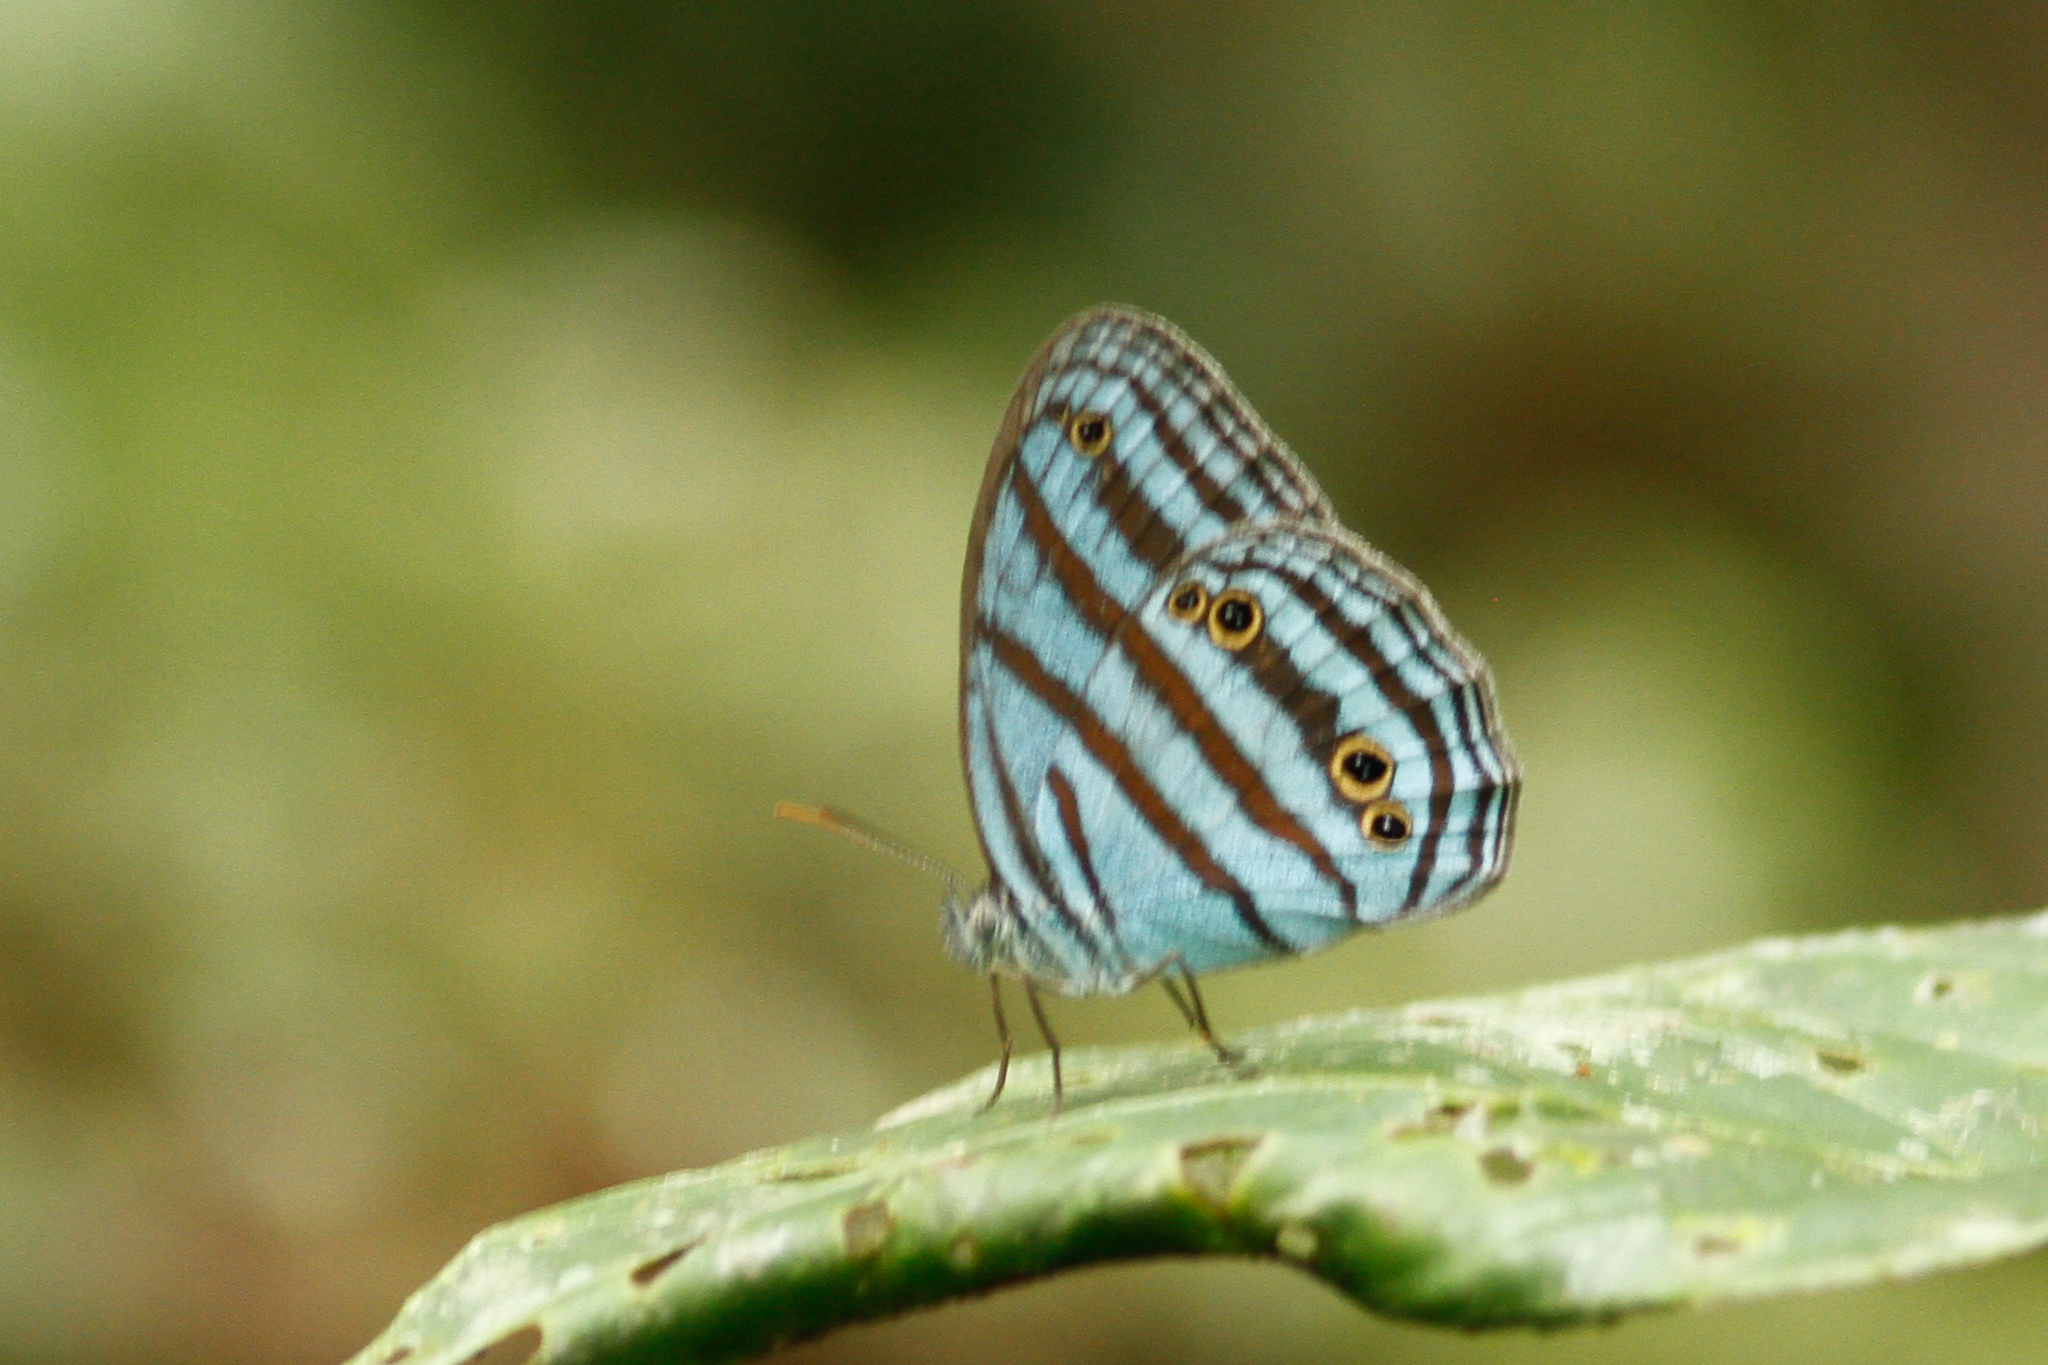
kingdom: Animalia
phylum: Arthropoda
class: Insecta
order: Lepidoptera
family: Nymphalidae
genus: Cepheuptychia
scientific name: Cepheuptychia cephus
